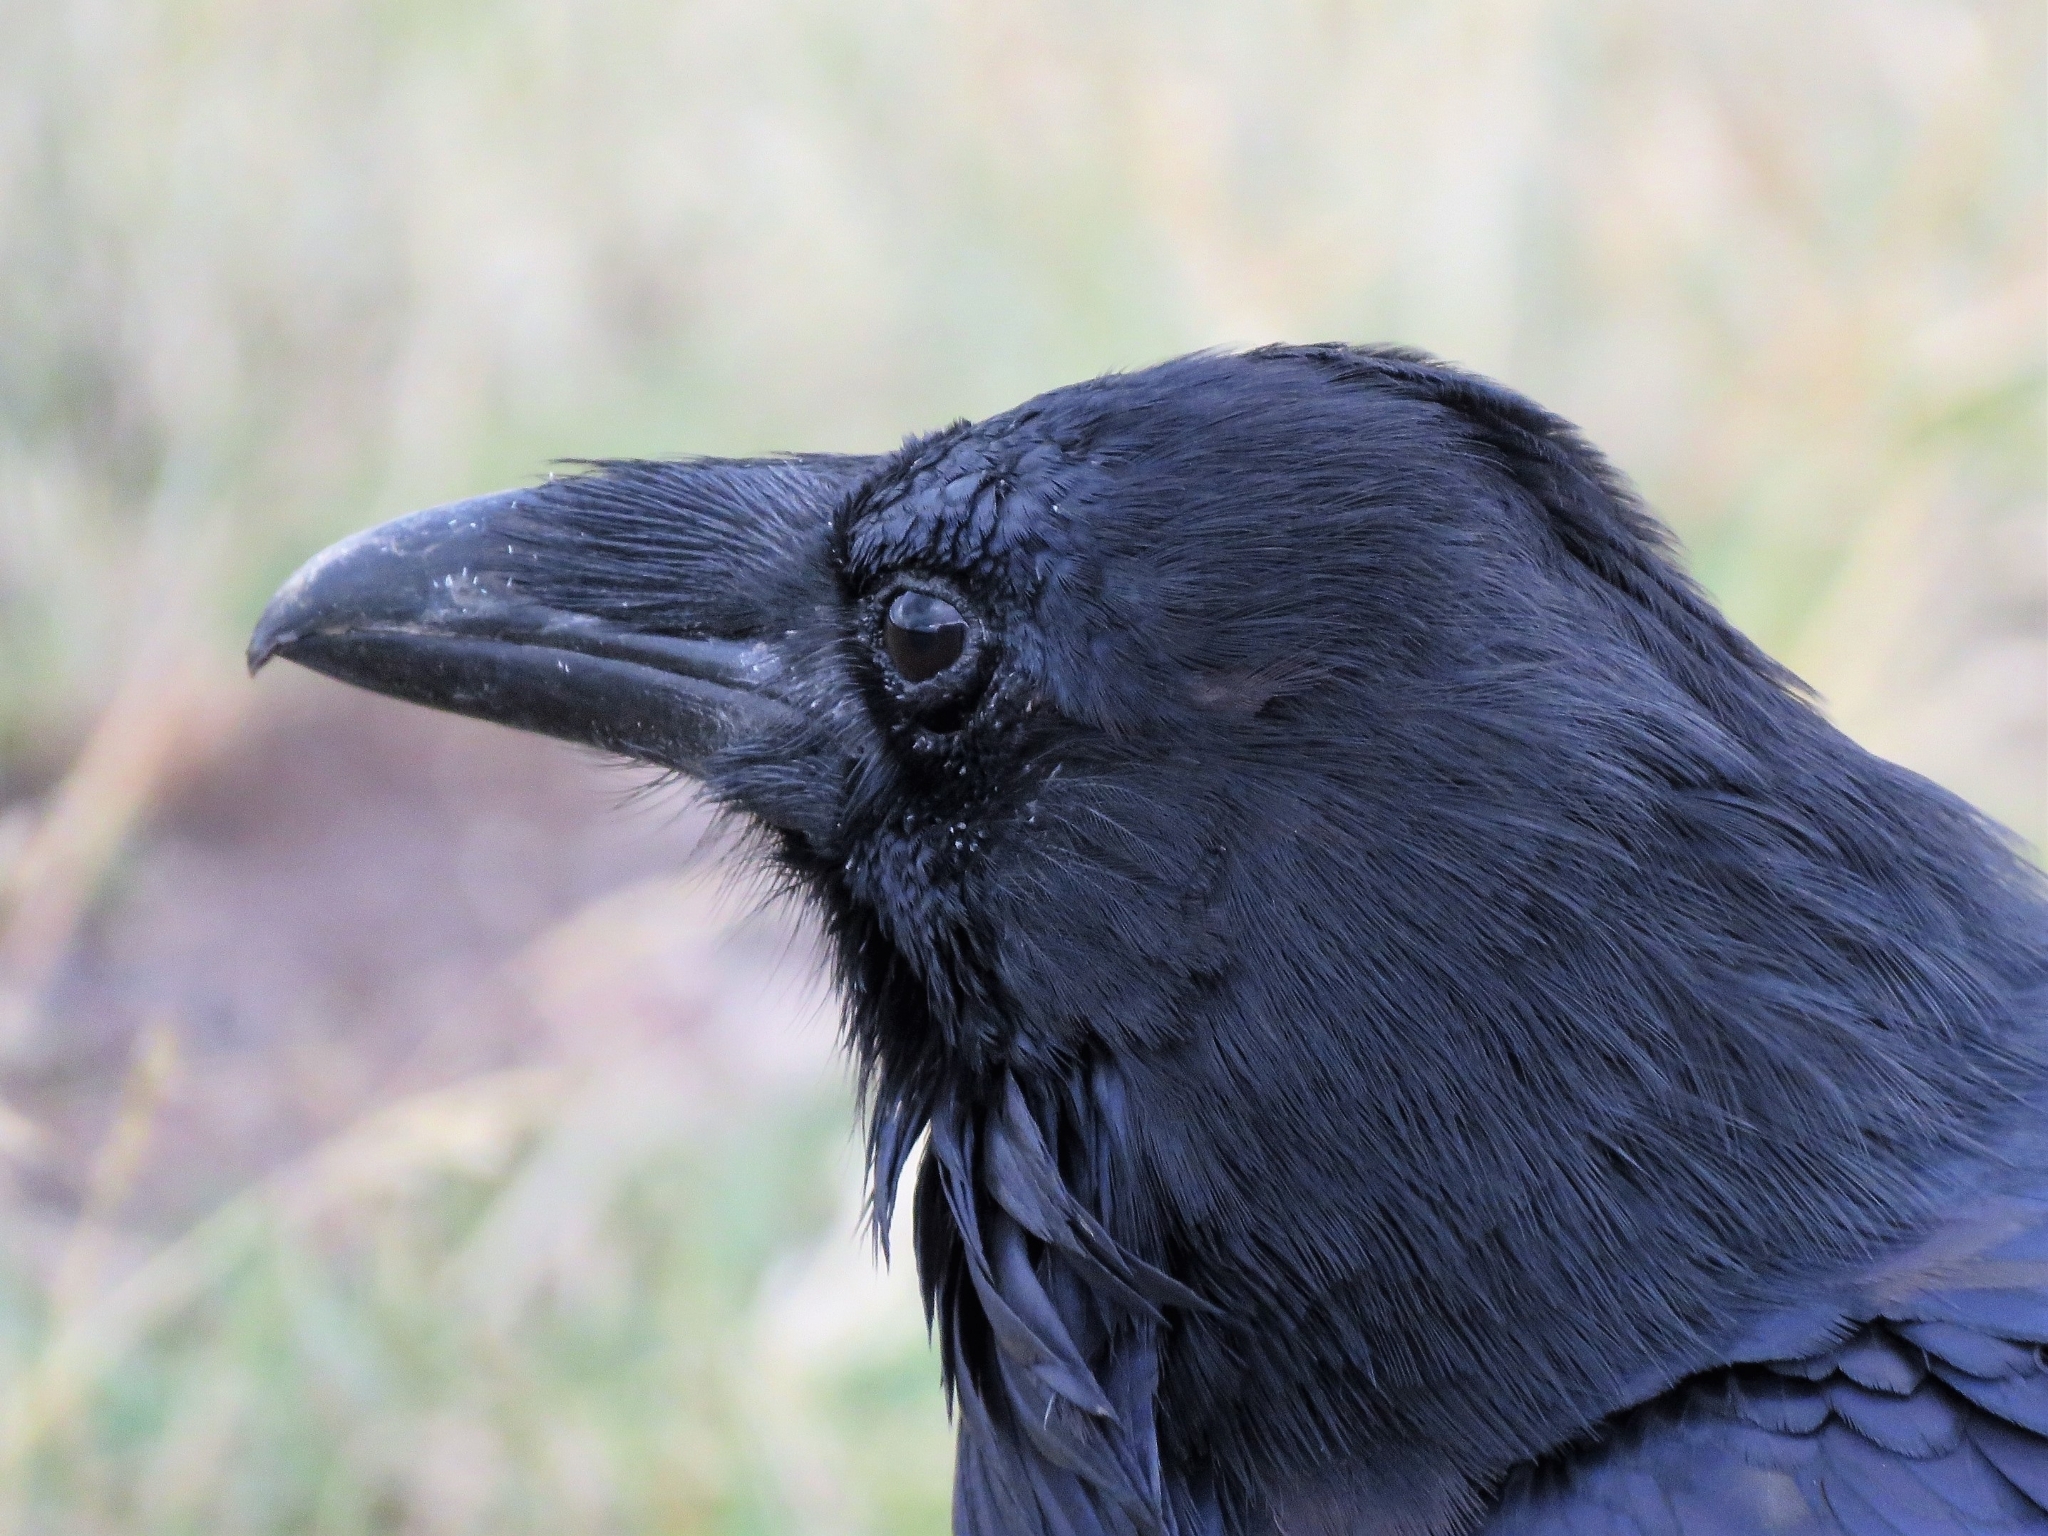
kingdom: Animalia
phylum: Chordata
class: Aves
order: Passeriformes
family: Corvidae
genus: Corvus
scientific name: Corvus corax
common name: Common raven
